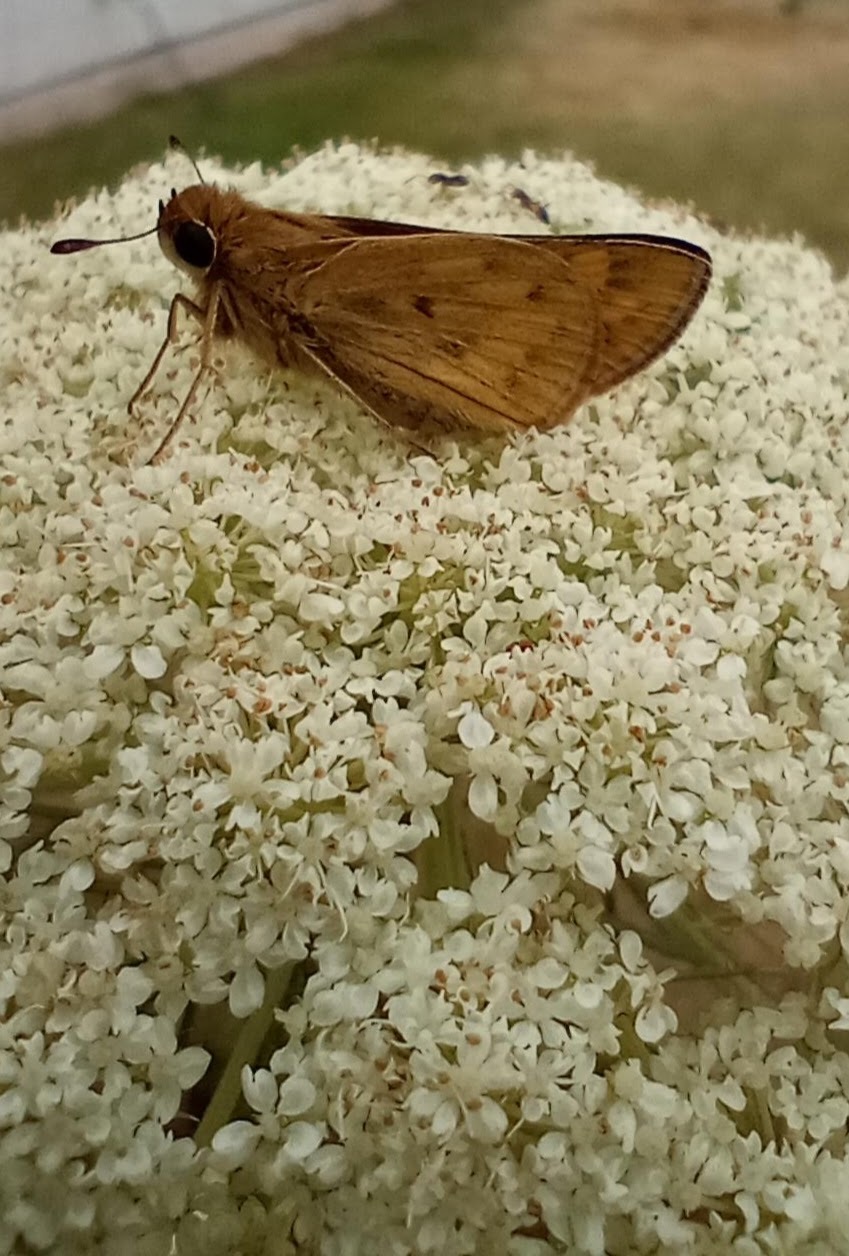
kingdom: Animalia
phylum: Arthropoda
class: Insecta
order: Lepidoptera
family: Hesperiidae
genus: Hylephila
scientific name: Hylephila phyleus
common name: Fiery skipper
